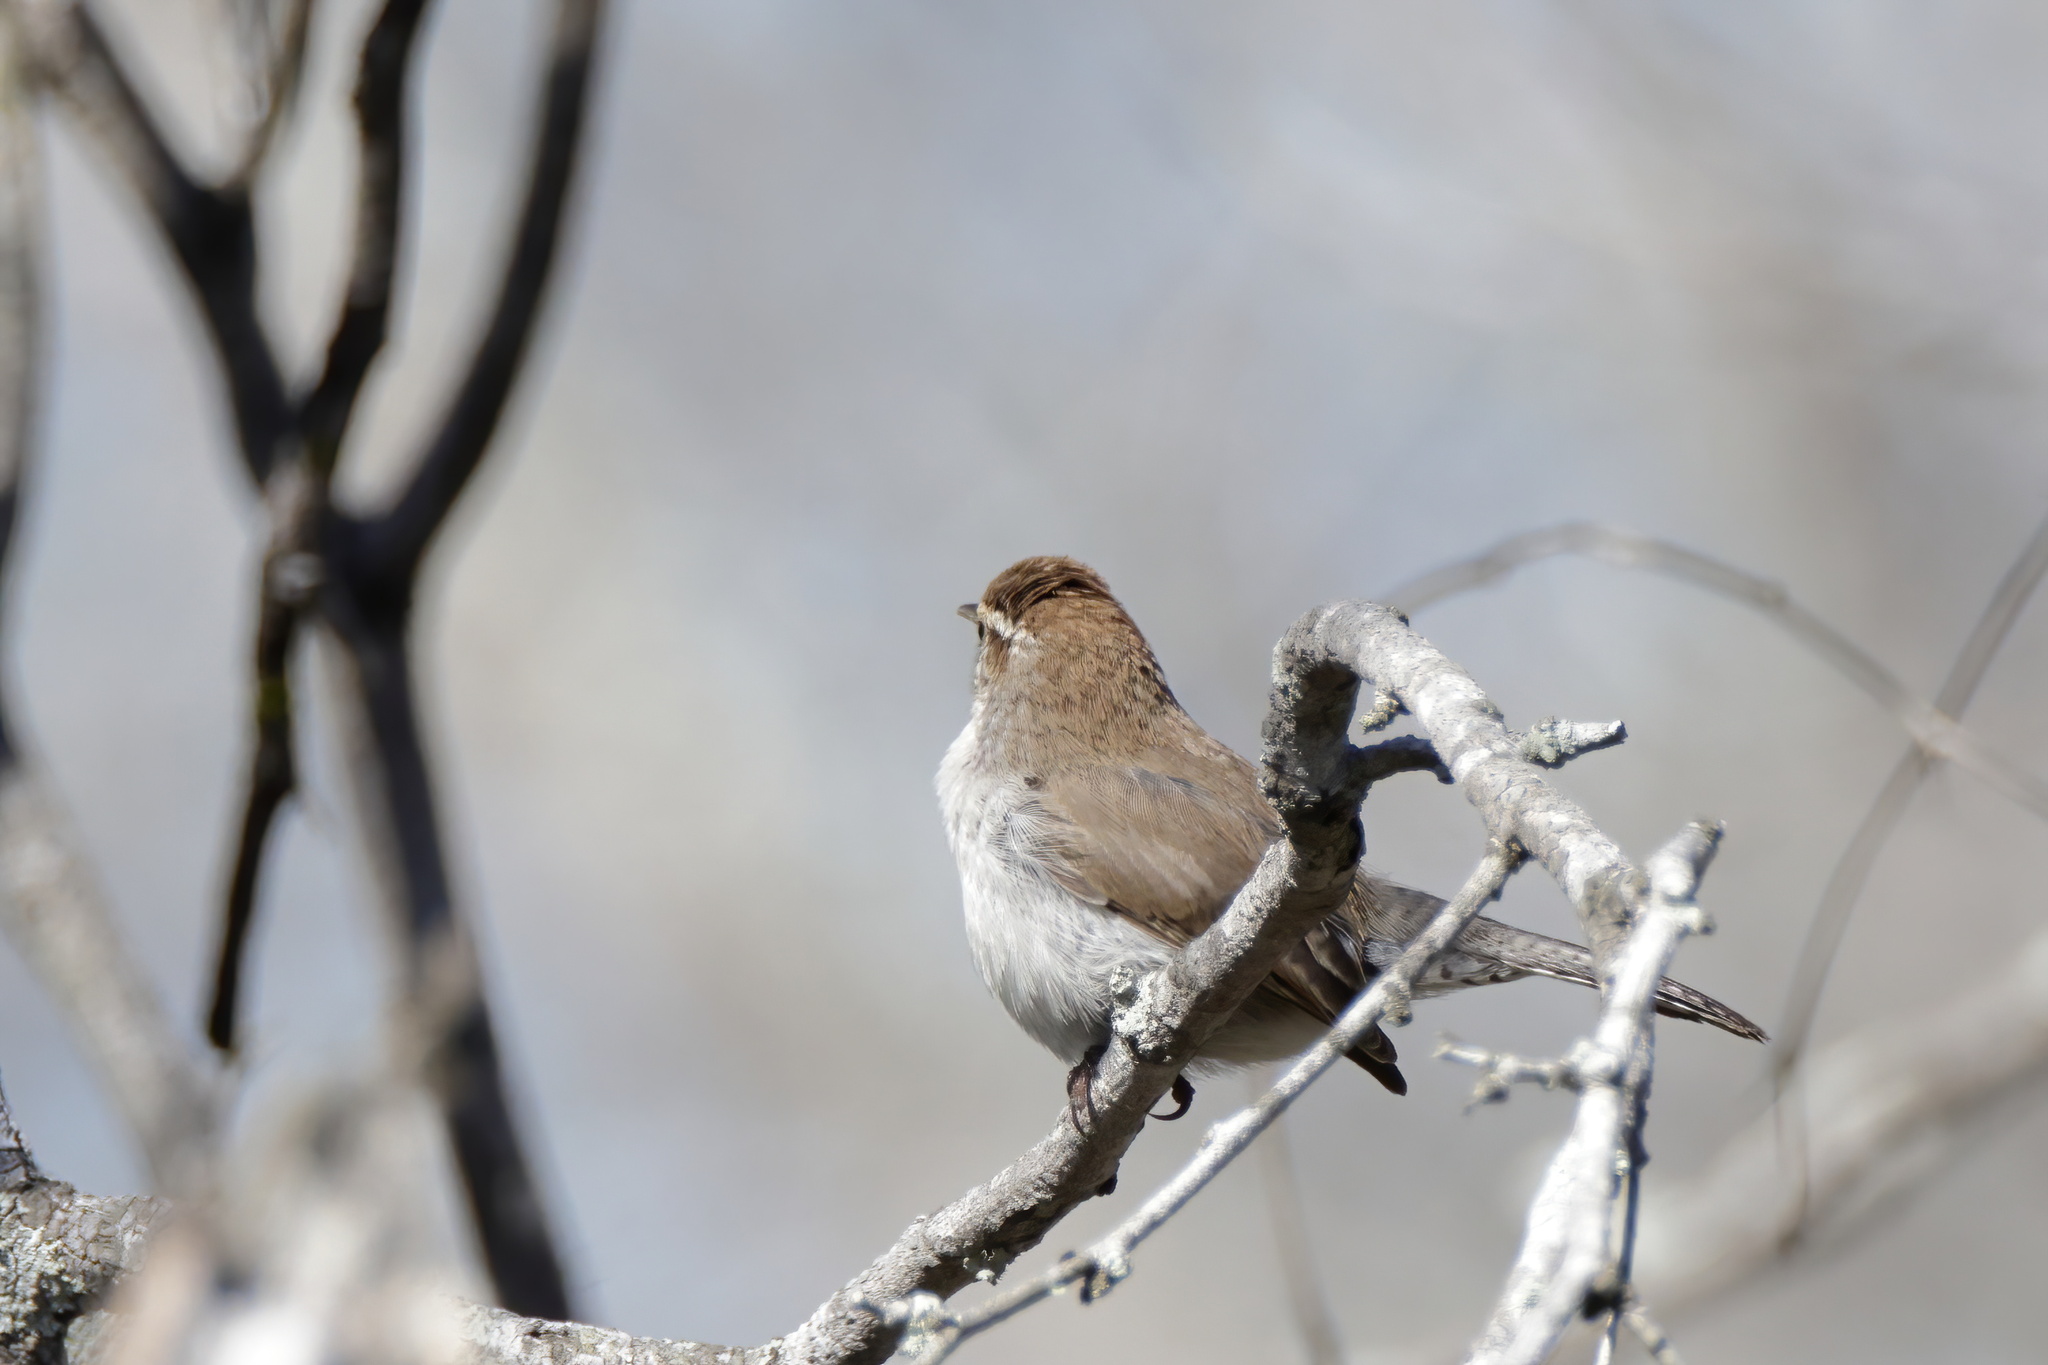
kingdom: Animalia
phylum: Chordata
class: Aves
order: Passeriformes
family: Troglodytidae
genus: Thryomanes
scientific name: Thryomanes bewickii
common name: Bewick's wren
